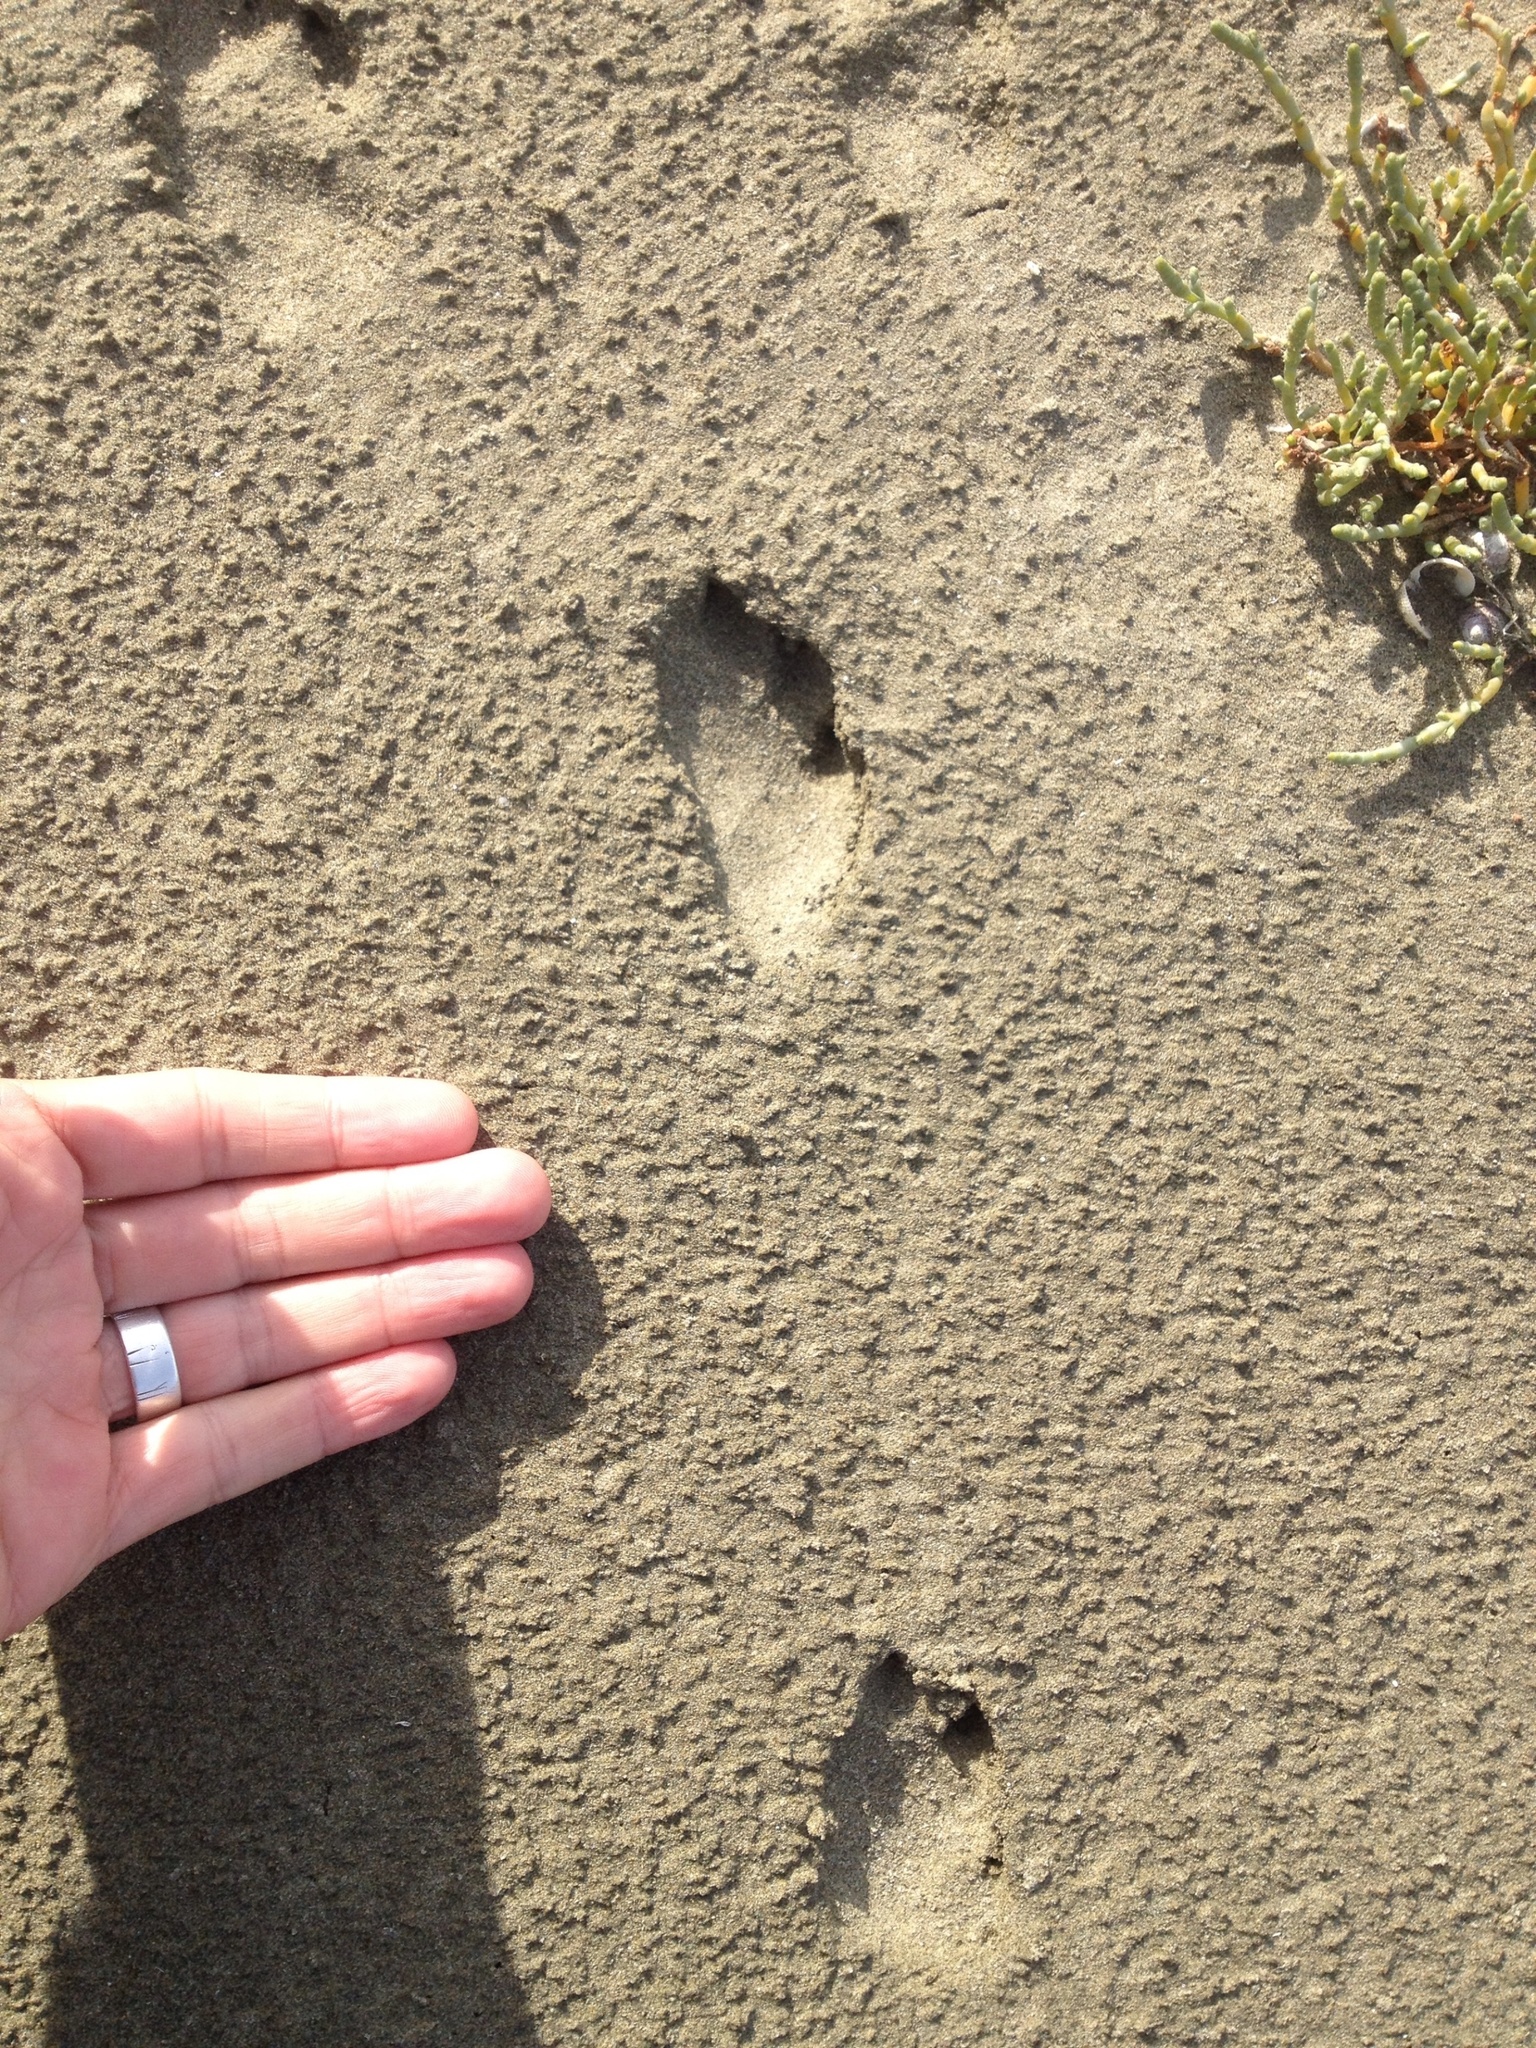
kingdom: Animalia
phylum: Chordata
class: Mammalia
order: Lagomorpha
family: Leporidae
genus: Lepus
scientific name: Lepus europaeus
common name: European hare
